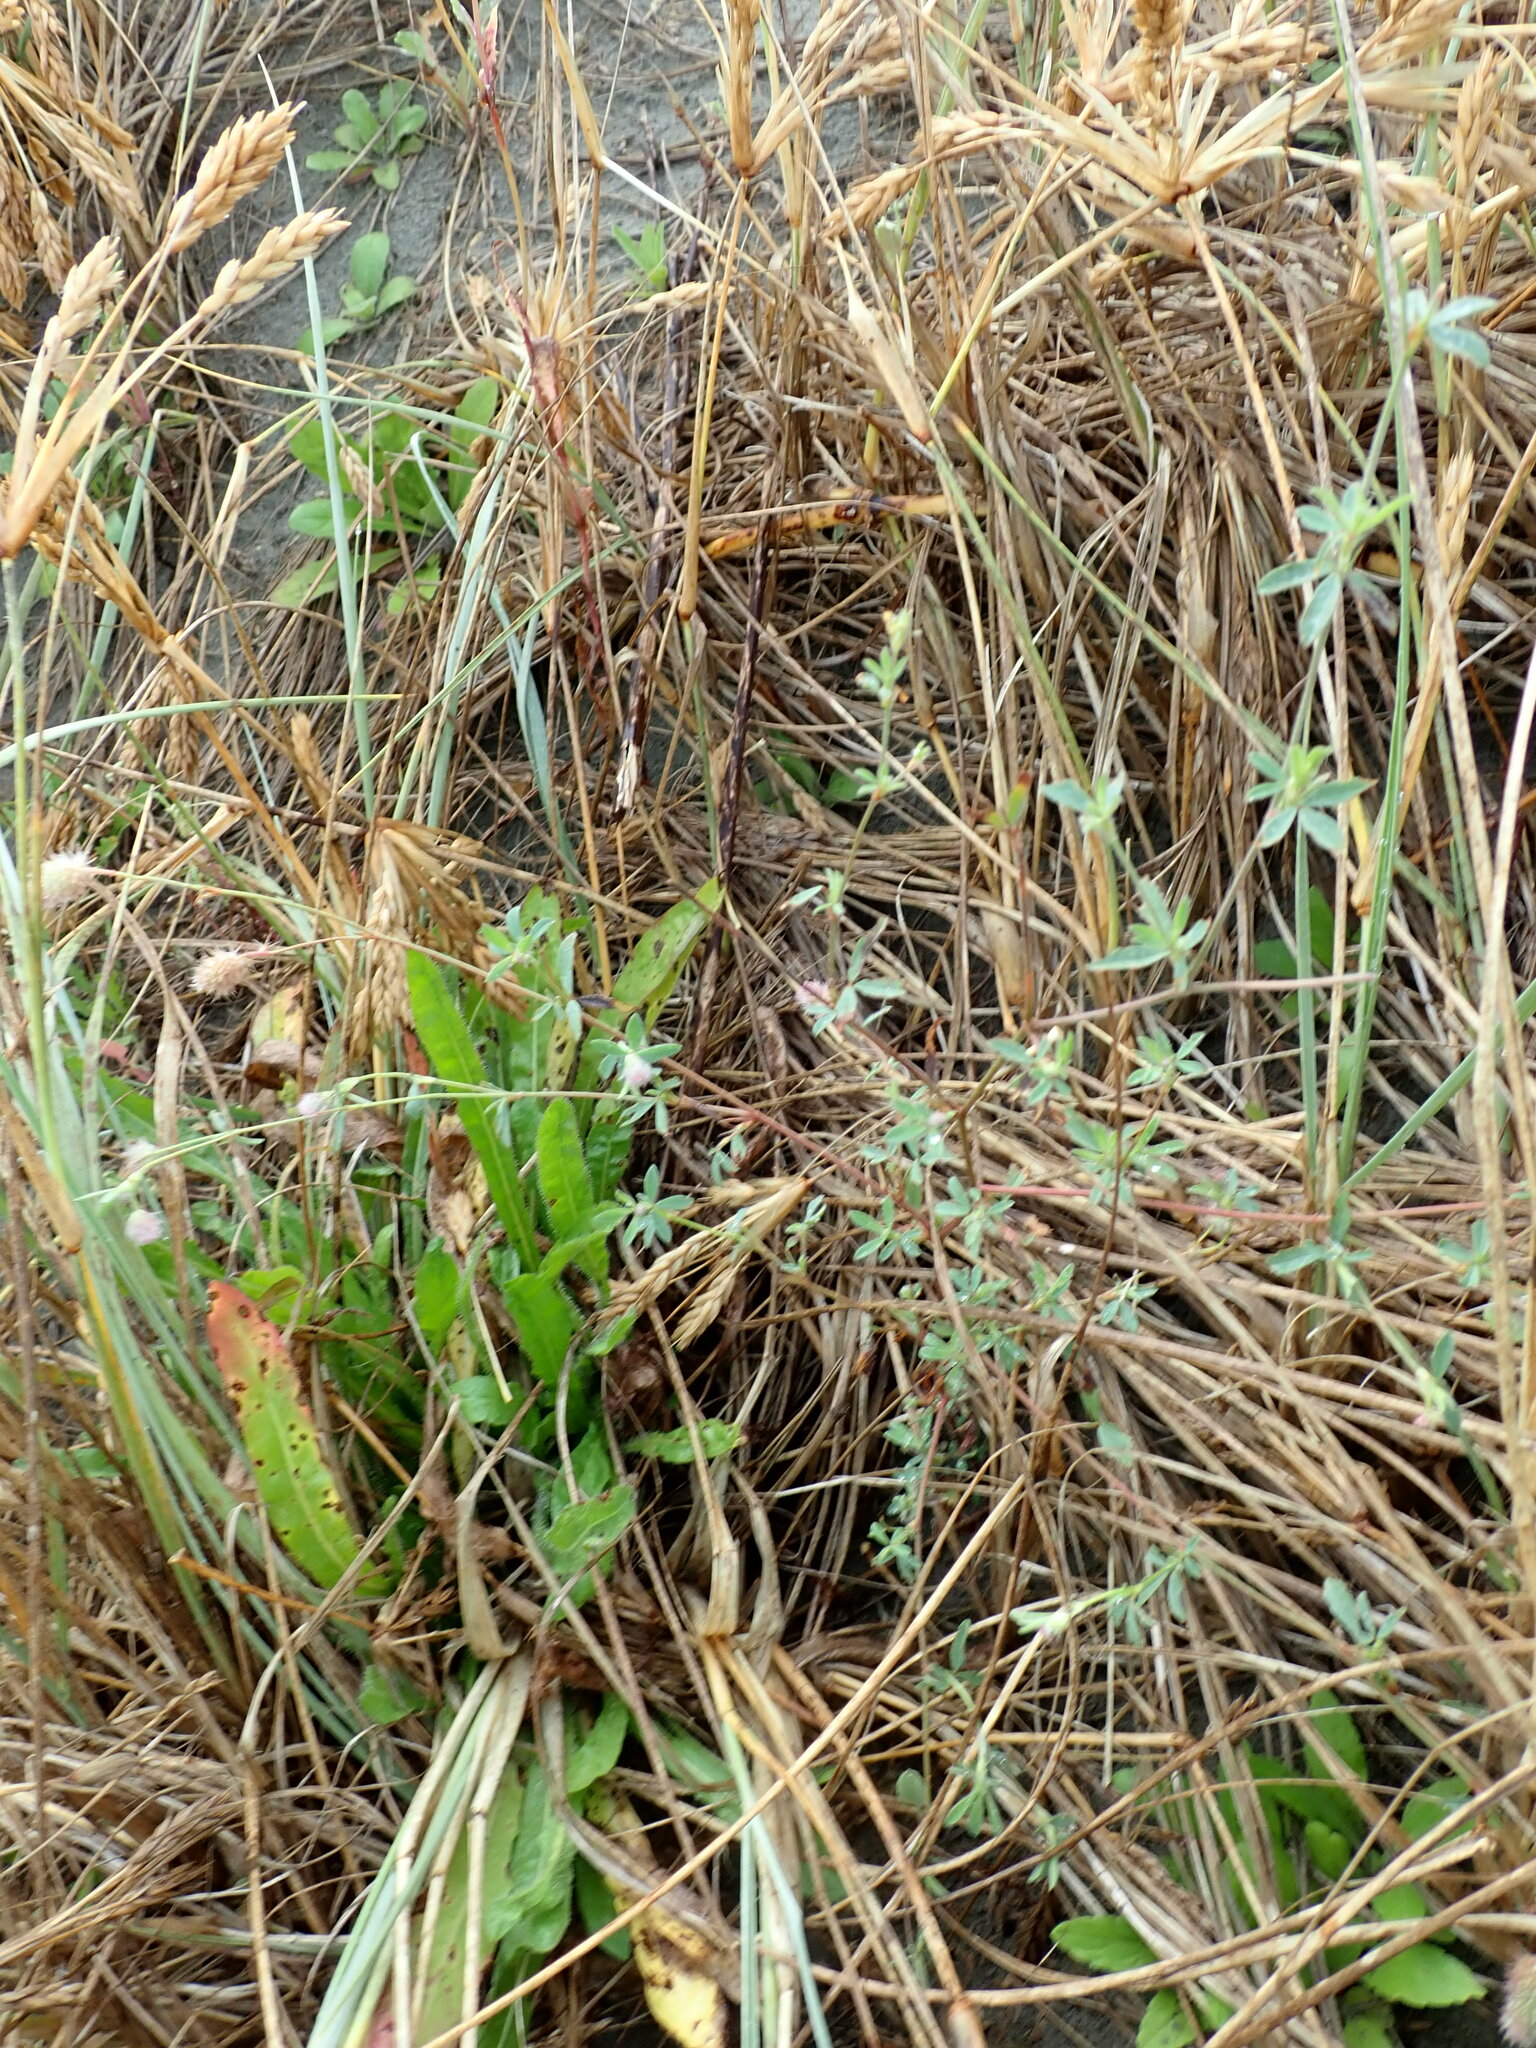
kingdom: Plantae
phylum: Tracheophyta
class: Magnoliopsida
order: Fabales
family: Fabaceae
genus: Trifolium
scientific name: Trifolium arvense
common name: Hare's-foot clover
